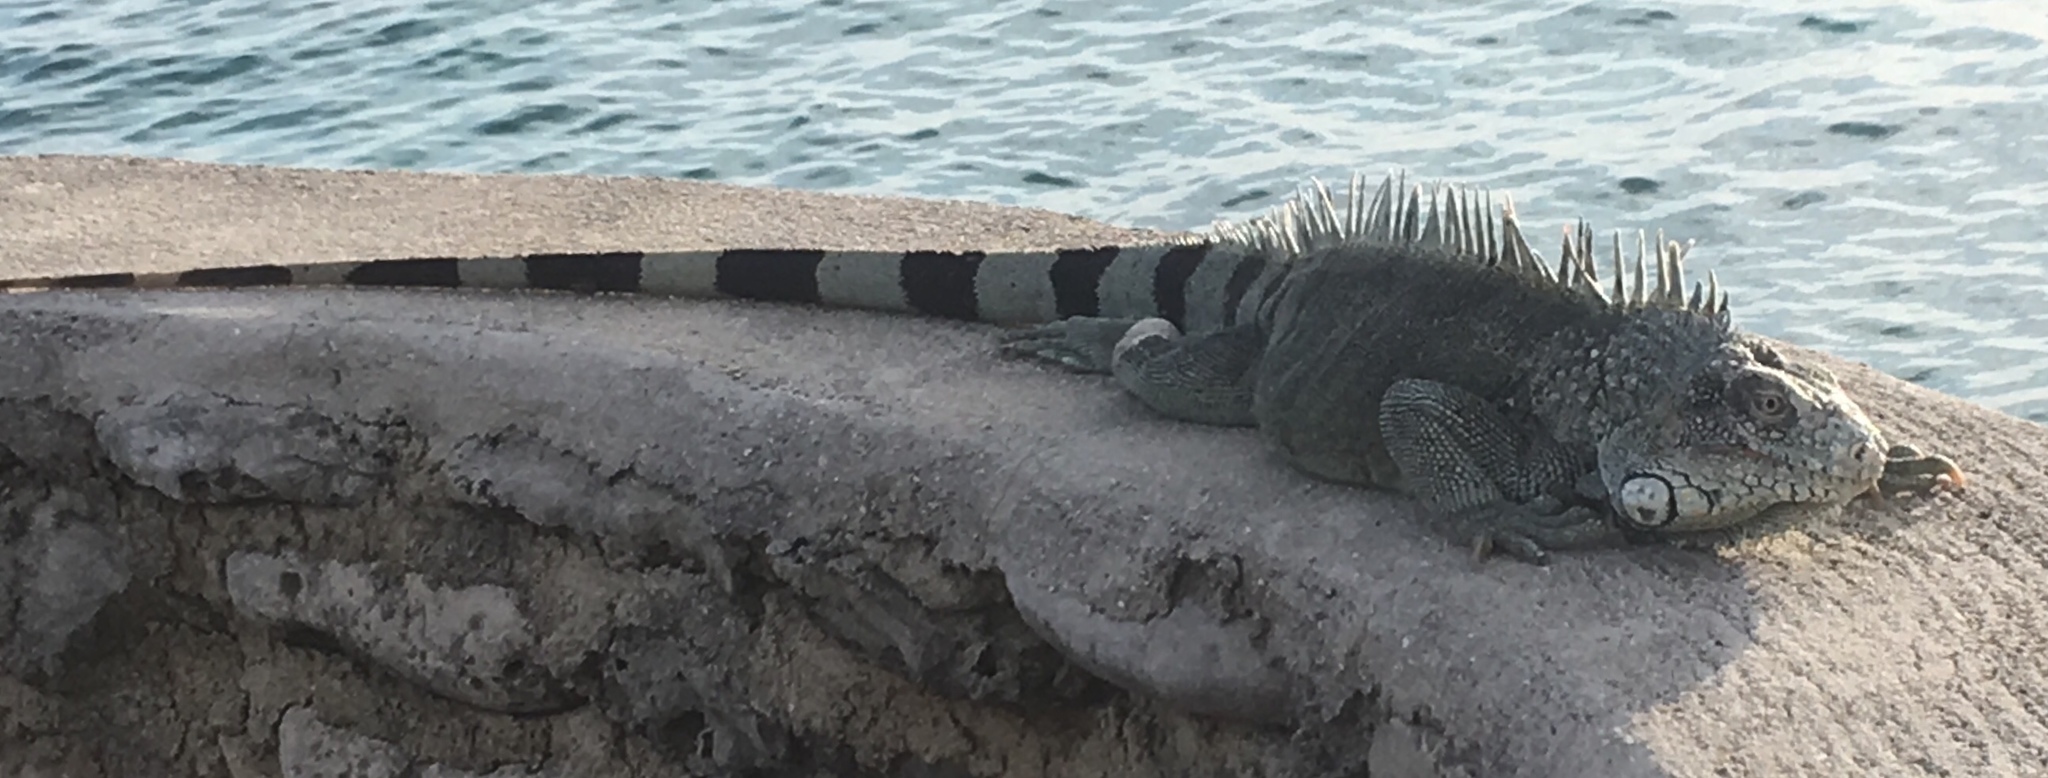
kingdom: Animalia
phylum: Chordata
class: Squamata
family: Iguanidae
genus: Iguana
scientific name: Iguana iguana
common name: Green iguana
